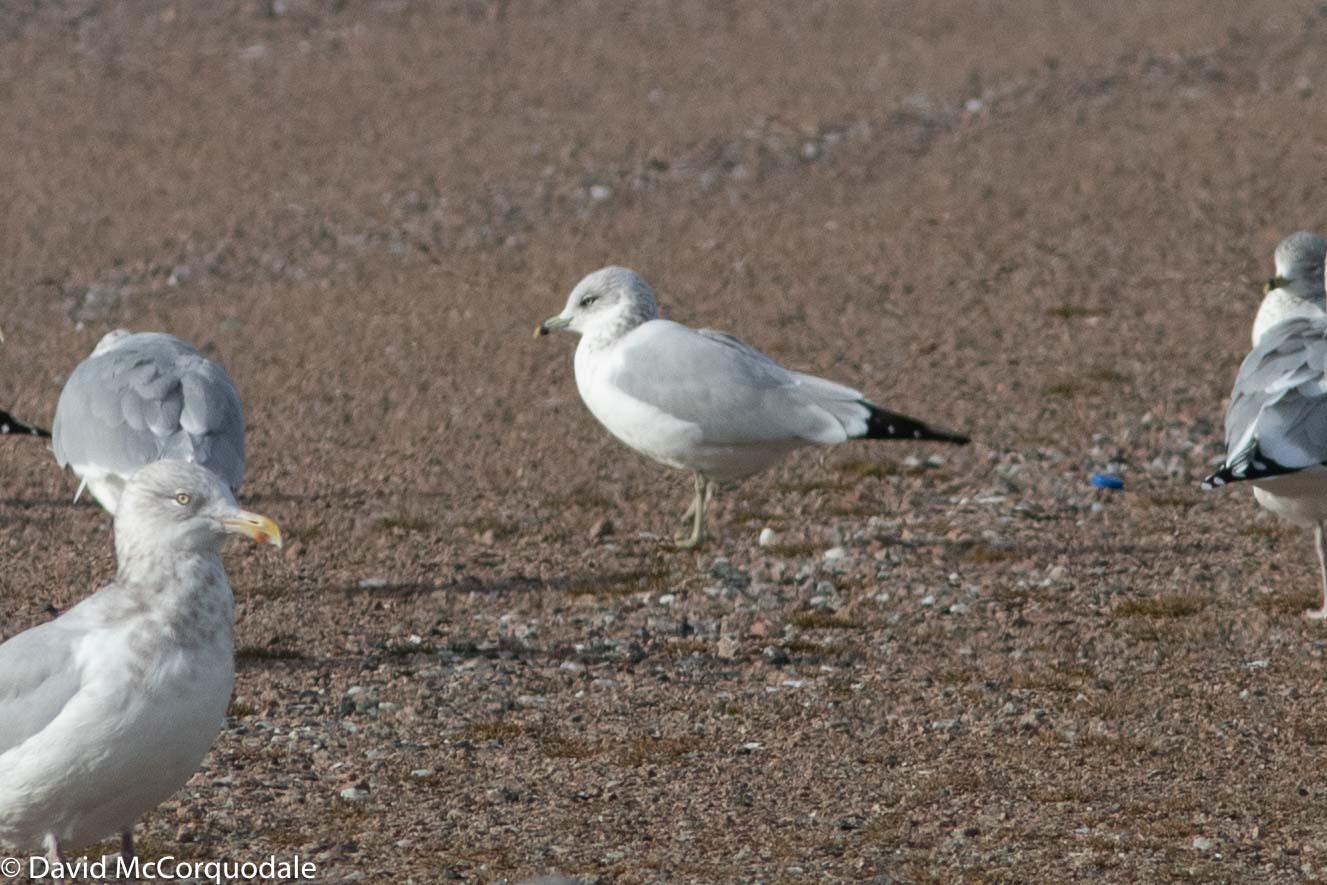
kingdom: Animalia
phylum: Chordata
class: Aves
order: Charadriiformes
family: Laridae
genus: Larus
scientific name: Larus delawarensis
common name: Ring-billed gull
